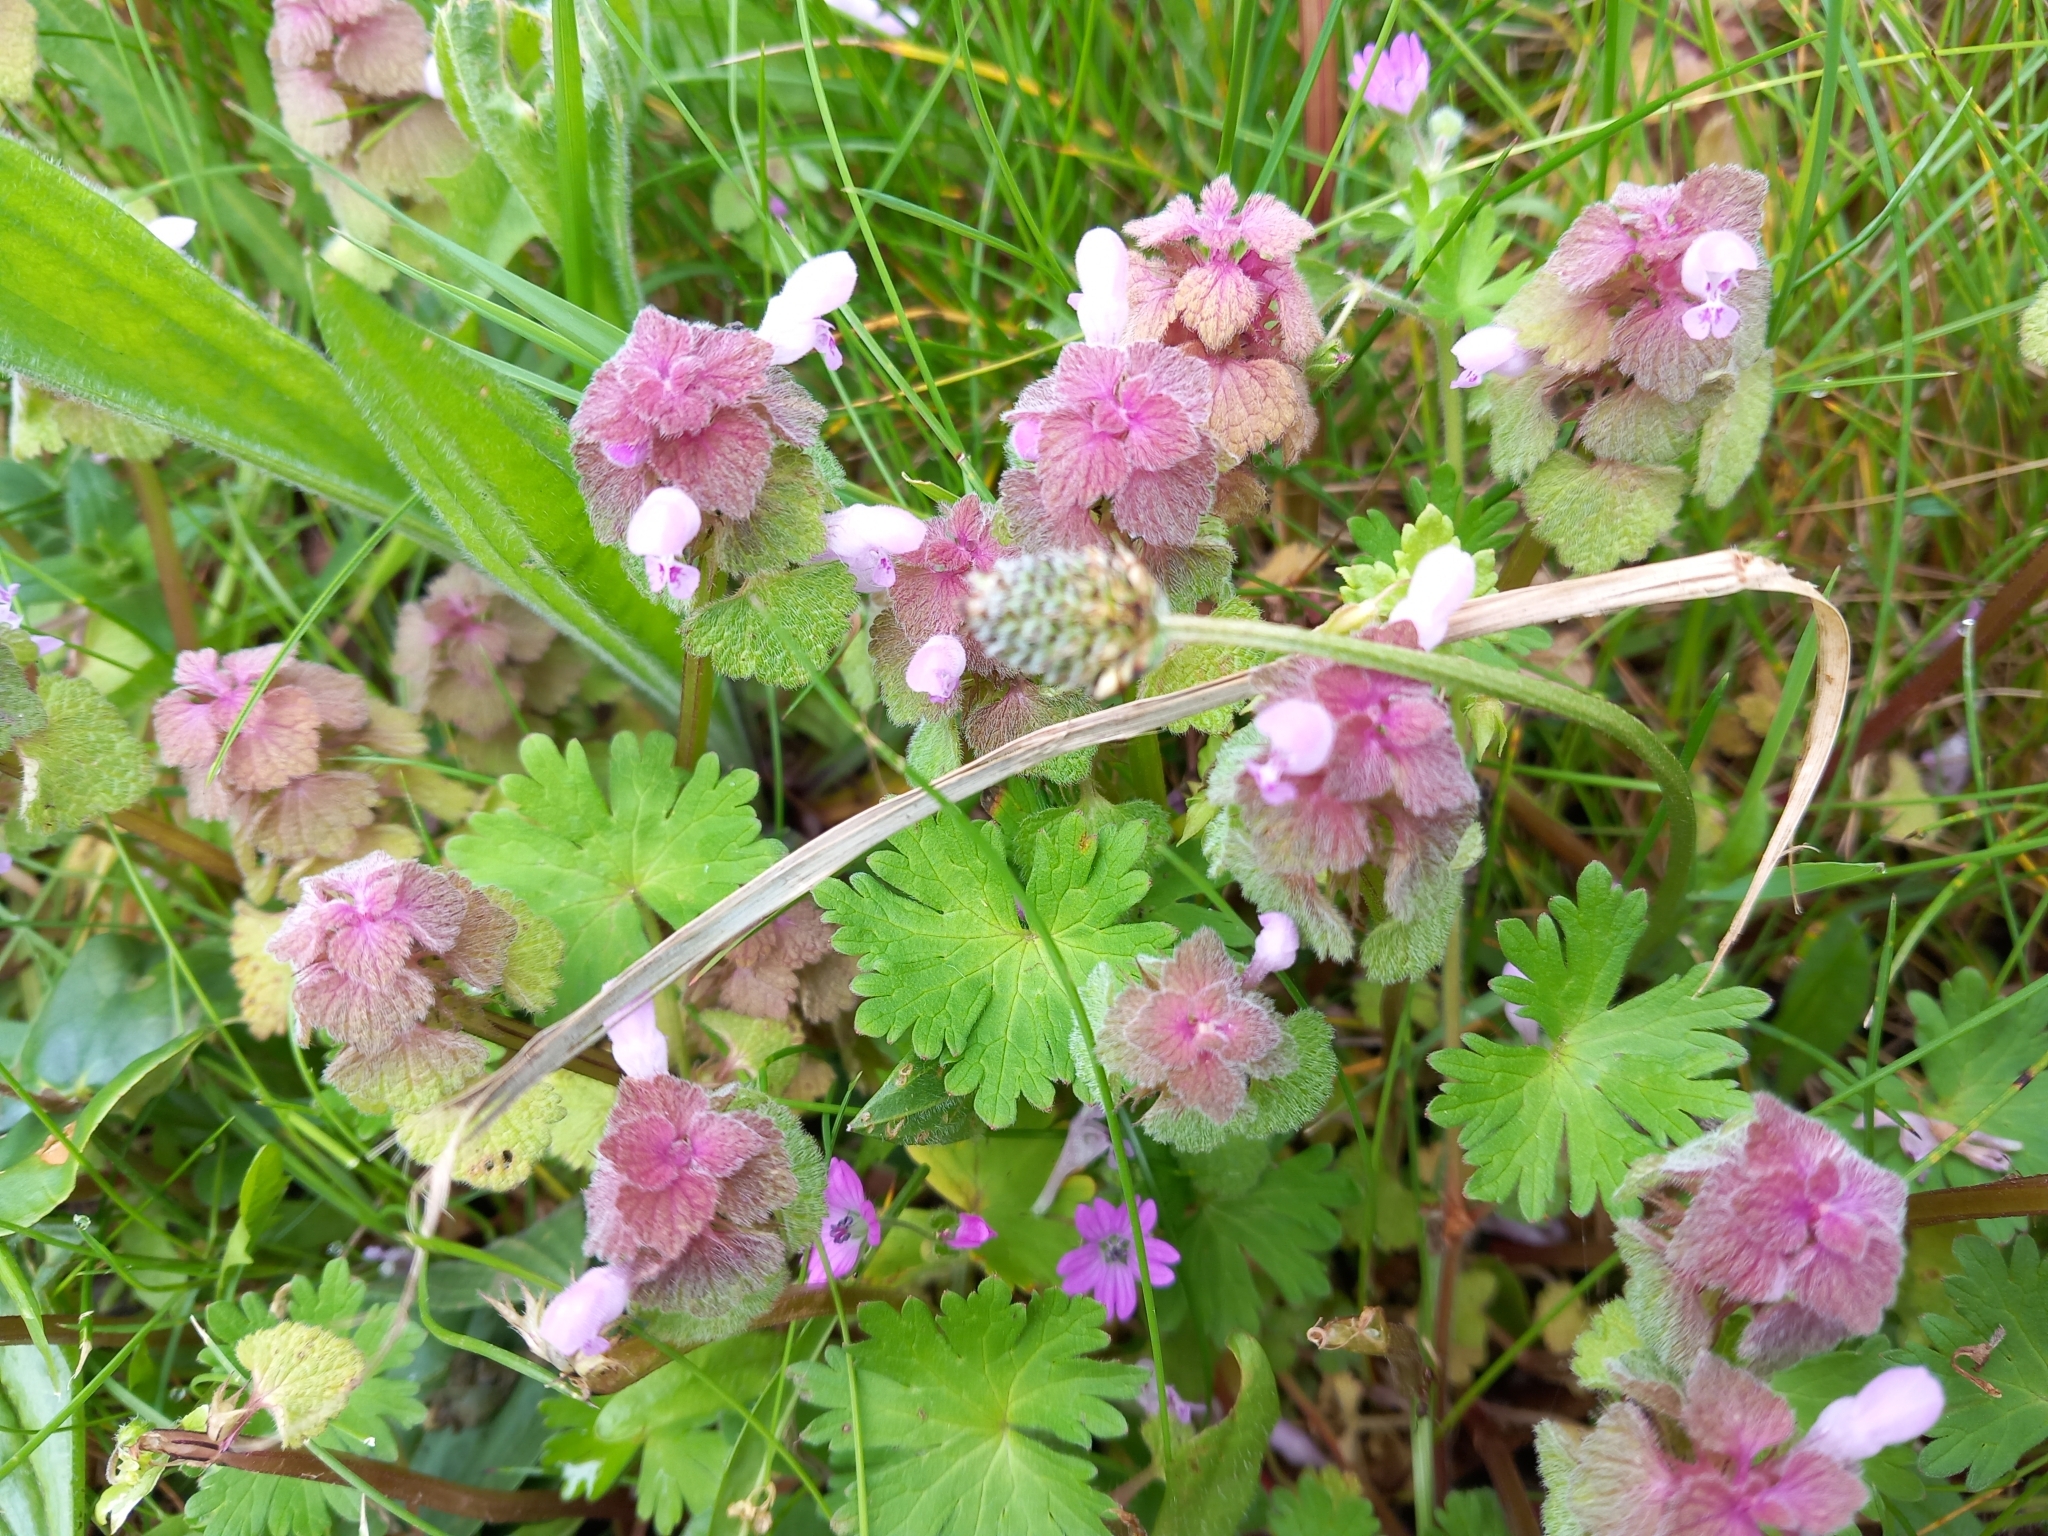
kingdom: Plantae
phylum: Tracheophyta
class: Magnoliopsida
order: Lamiales
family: Lamiaceae
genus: Lamium
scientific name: Lamium purpureum
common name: Red dead-nettle
